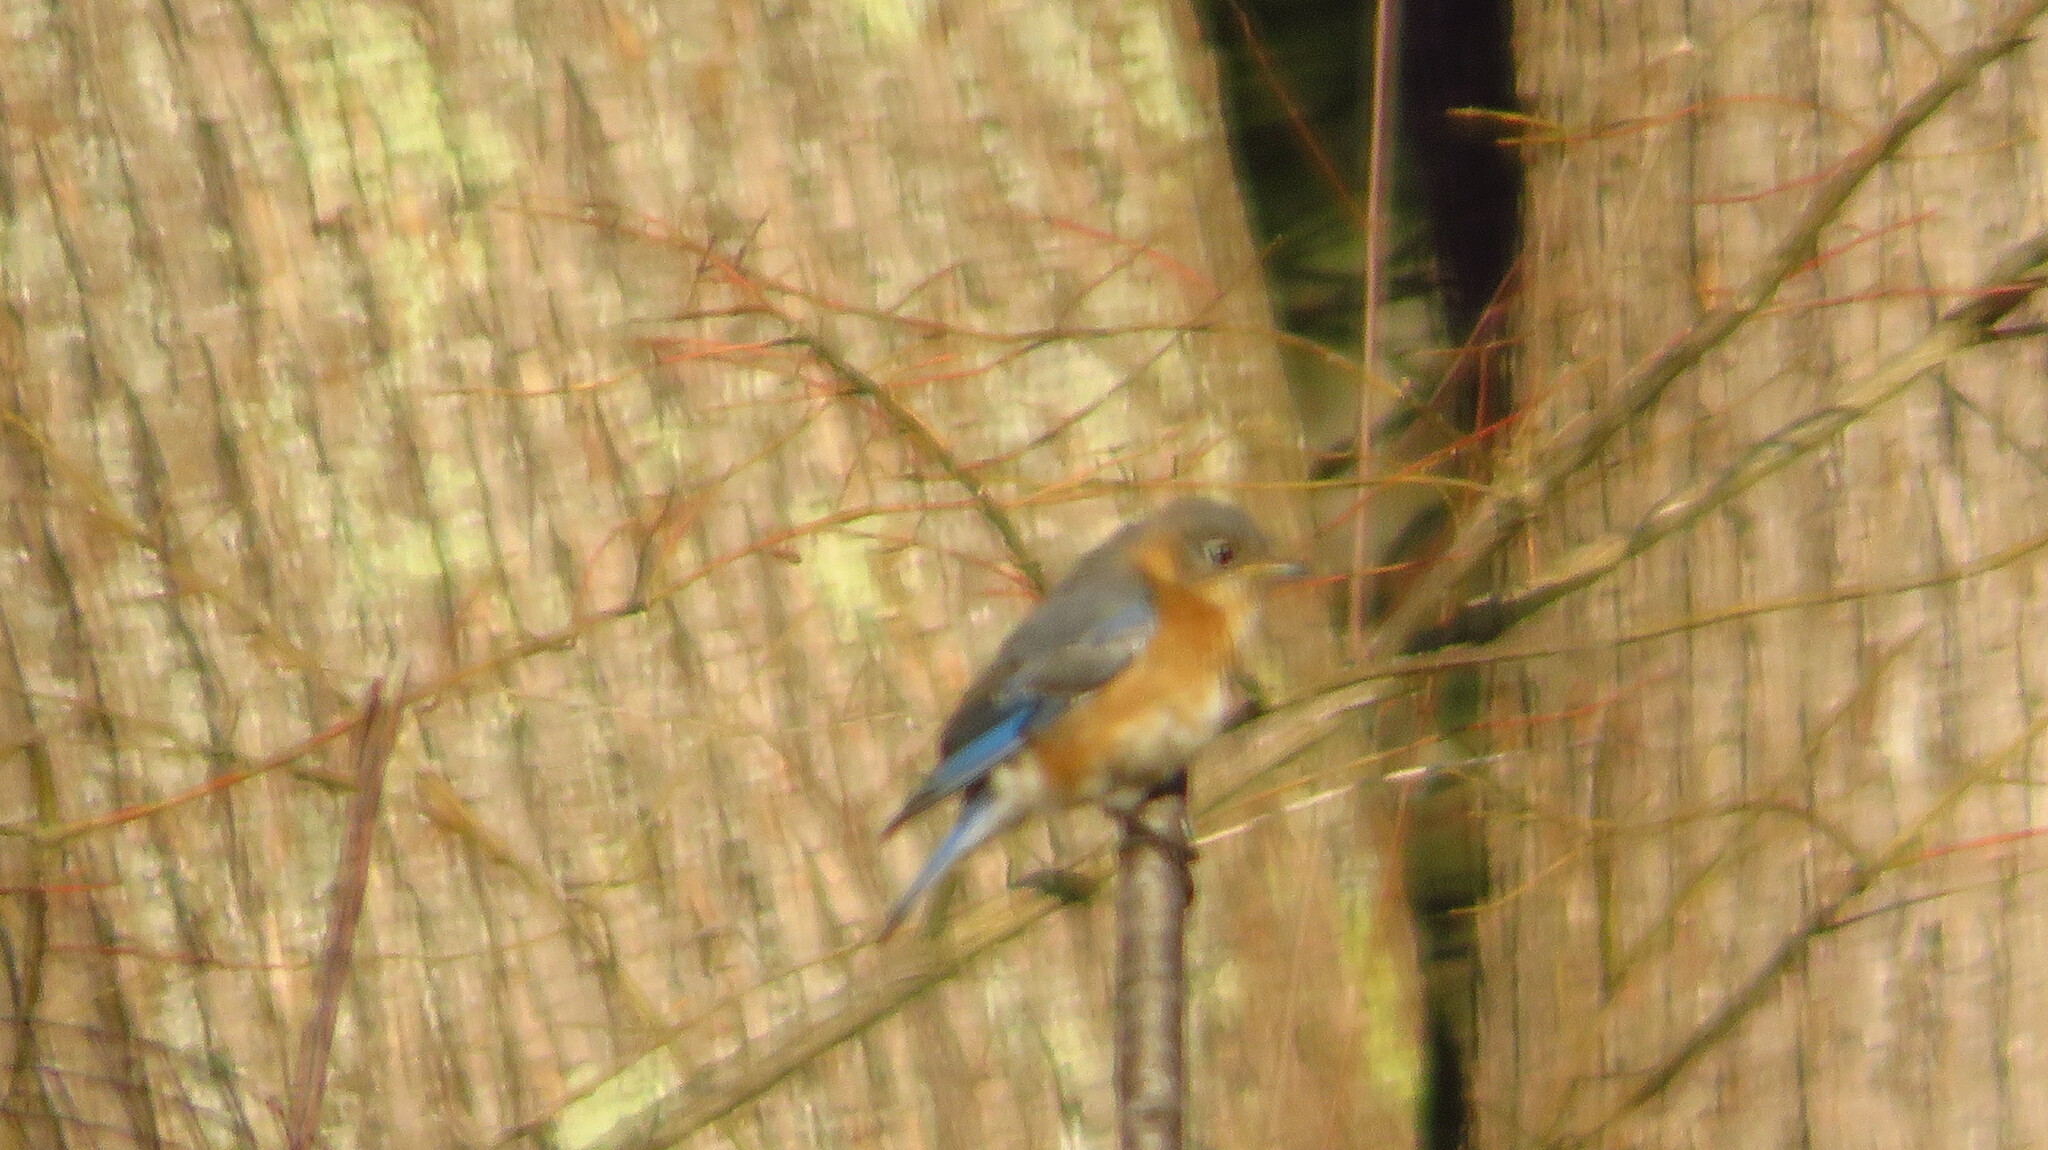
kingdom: Animalia
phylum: Chordata
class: Aves
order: Passeriformes
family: Turdidae
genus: Sialia
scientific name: Sialia sialis
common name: Eastern bluebird
